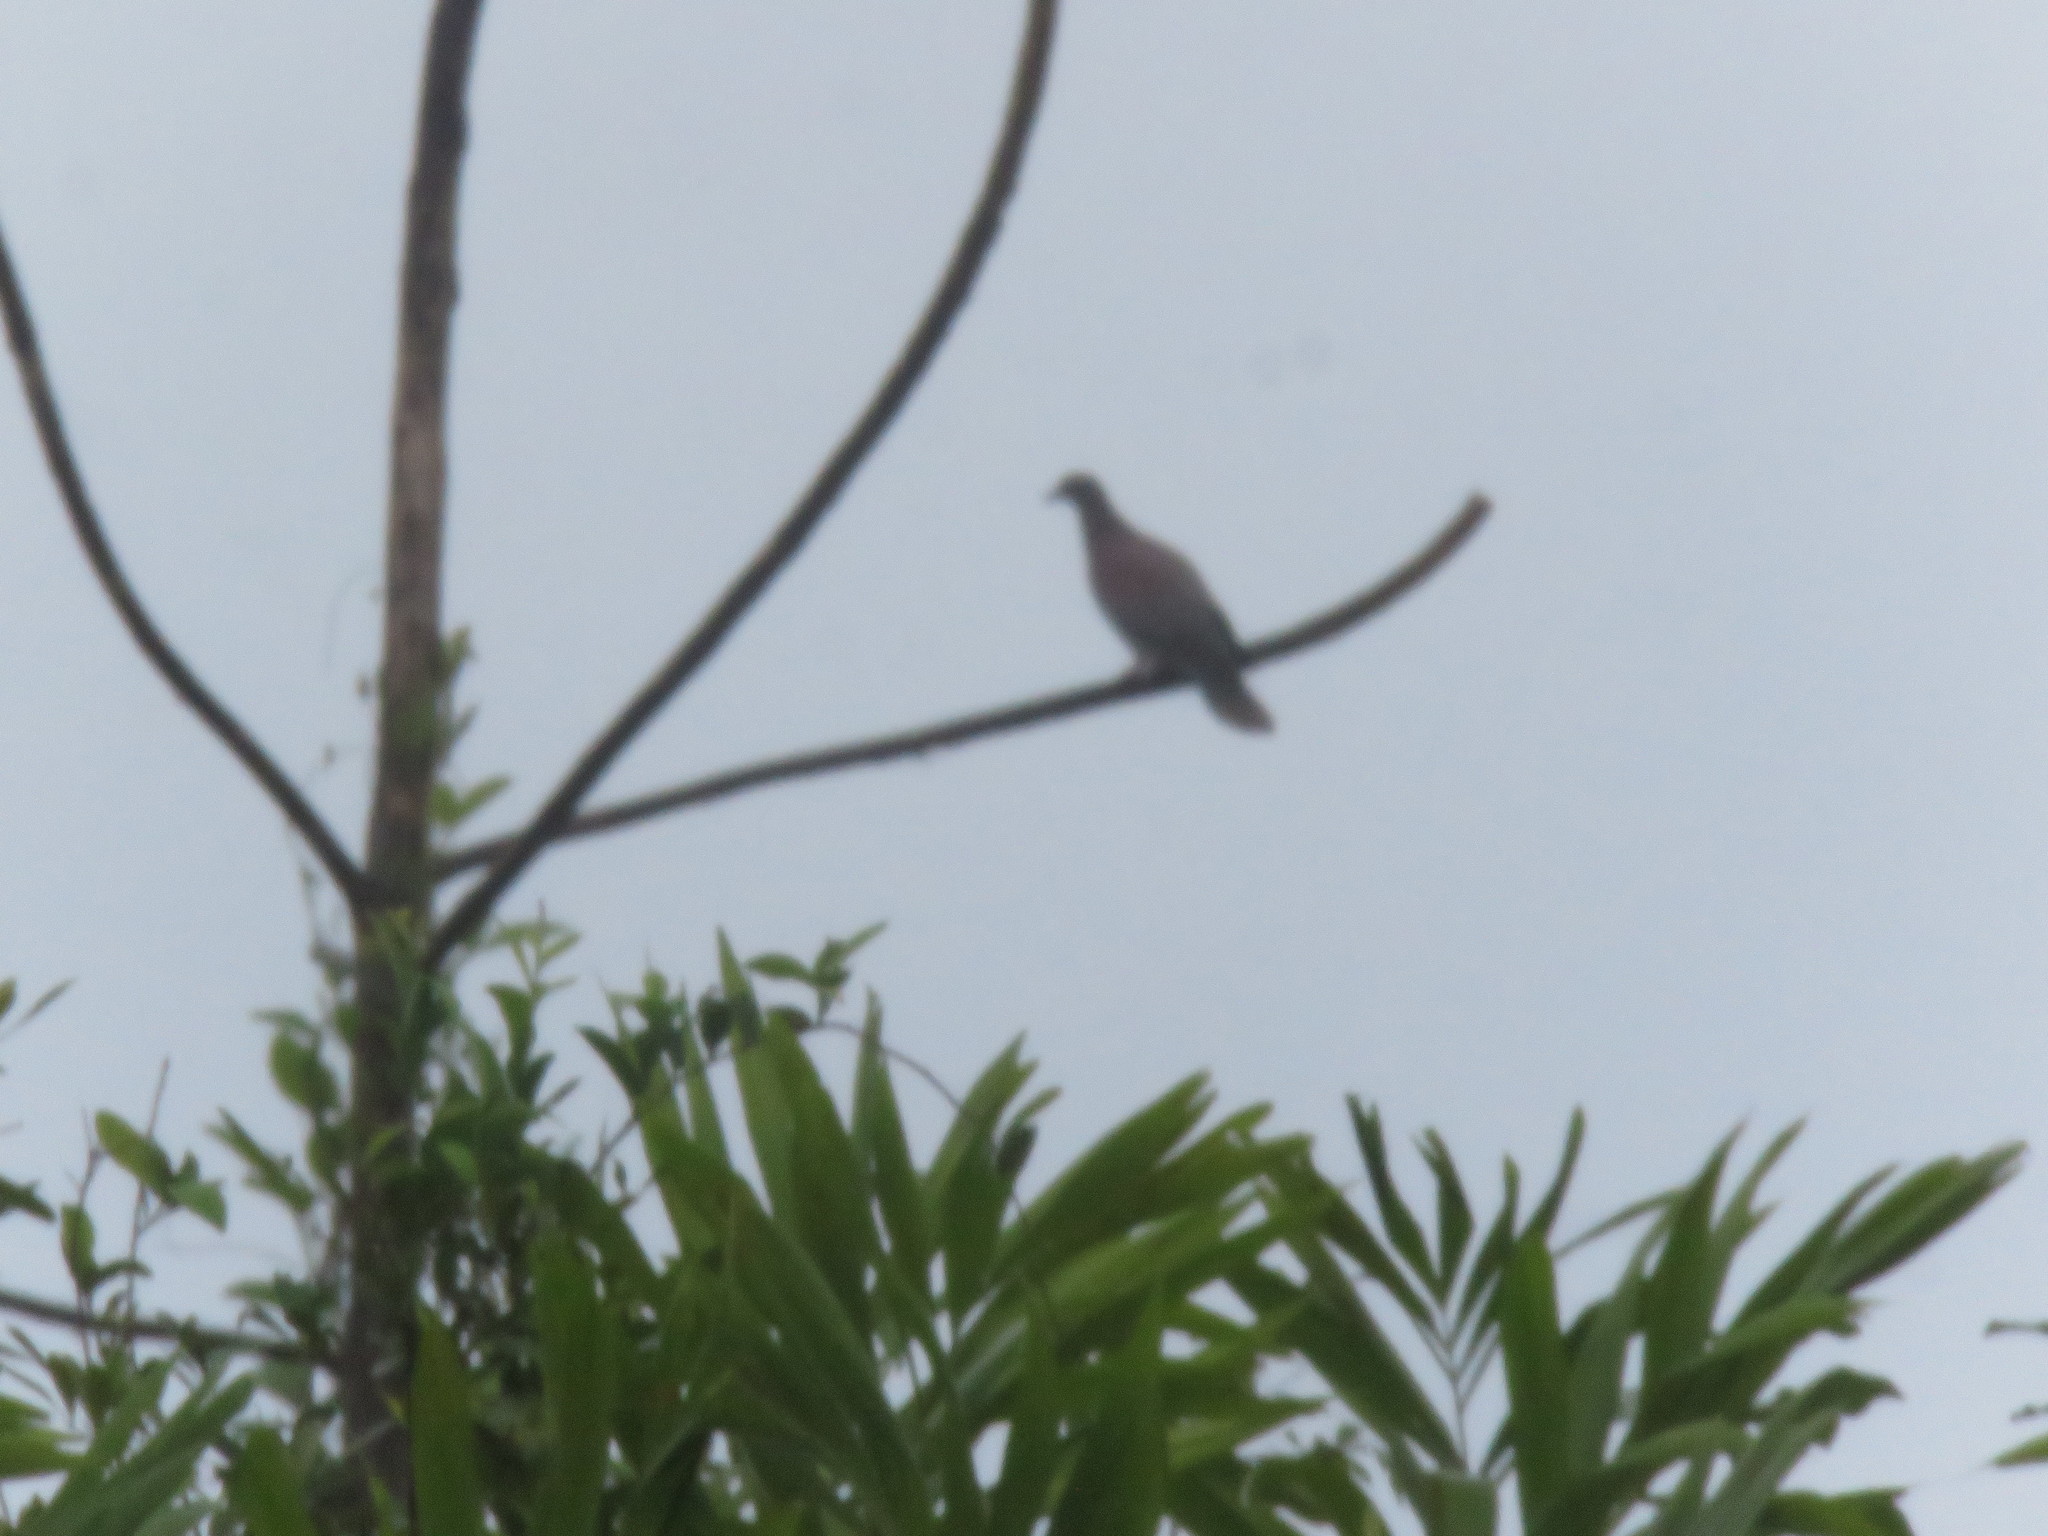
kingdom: Animalia
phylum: Chordata
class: Aves
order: Columbiformes
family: Columbidae
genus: Patagioenas
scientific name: Patagioenas cayennensis
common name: Pale-vented pigeon
